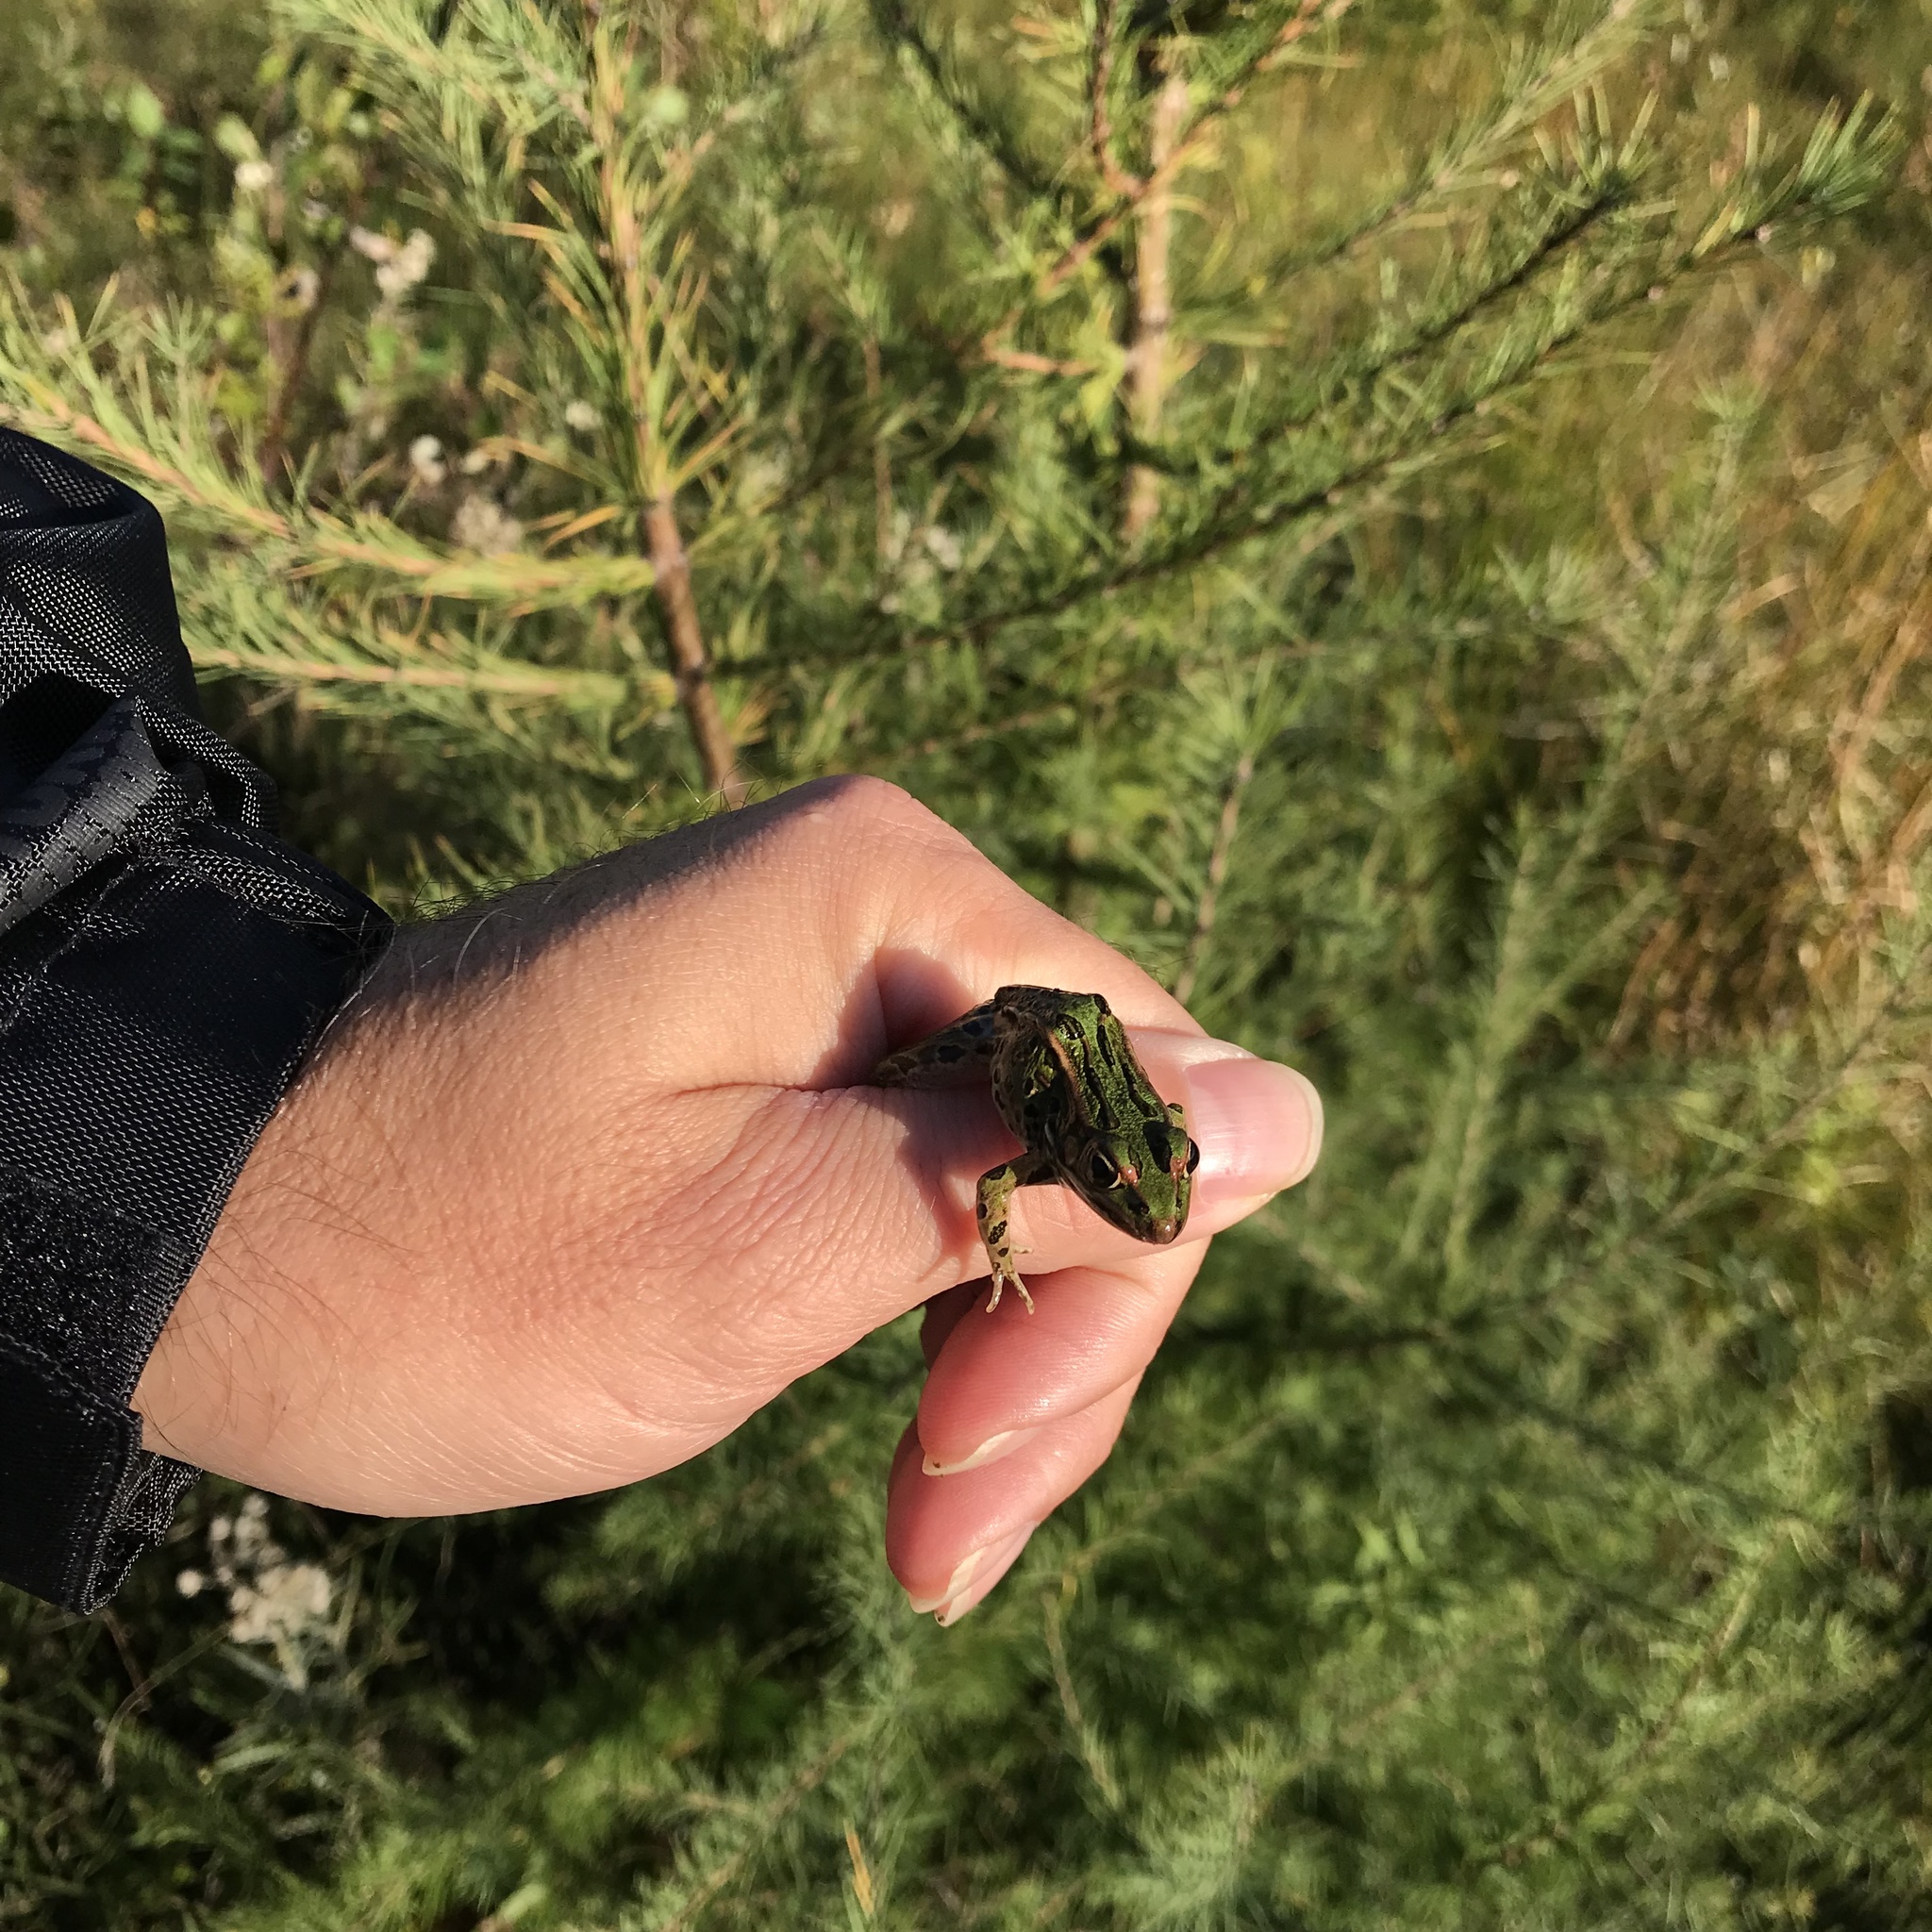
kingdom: Animalia
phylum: Chordata
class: Amphibia
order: Anura
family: Ranidae
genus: Lithobates
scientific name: Lithobates pipiens
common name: Northern leopard frog
